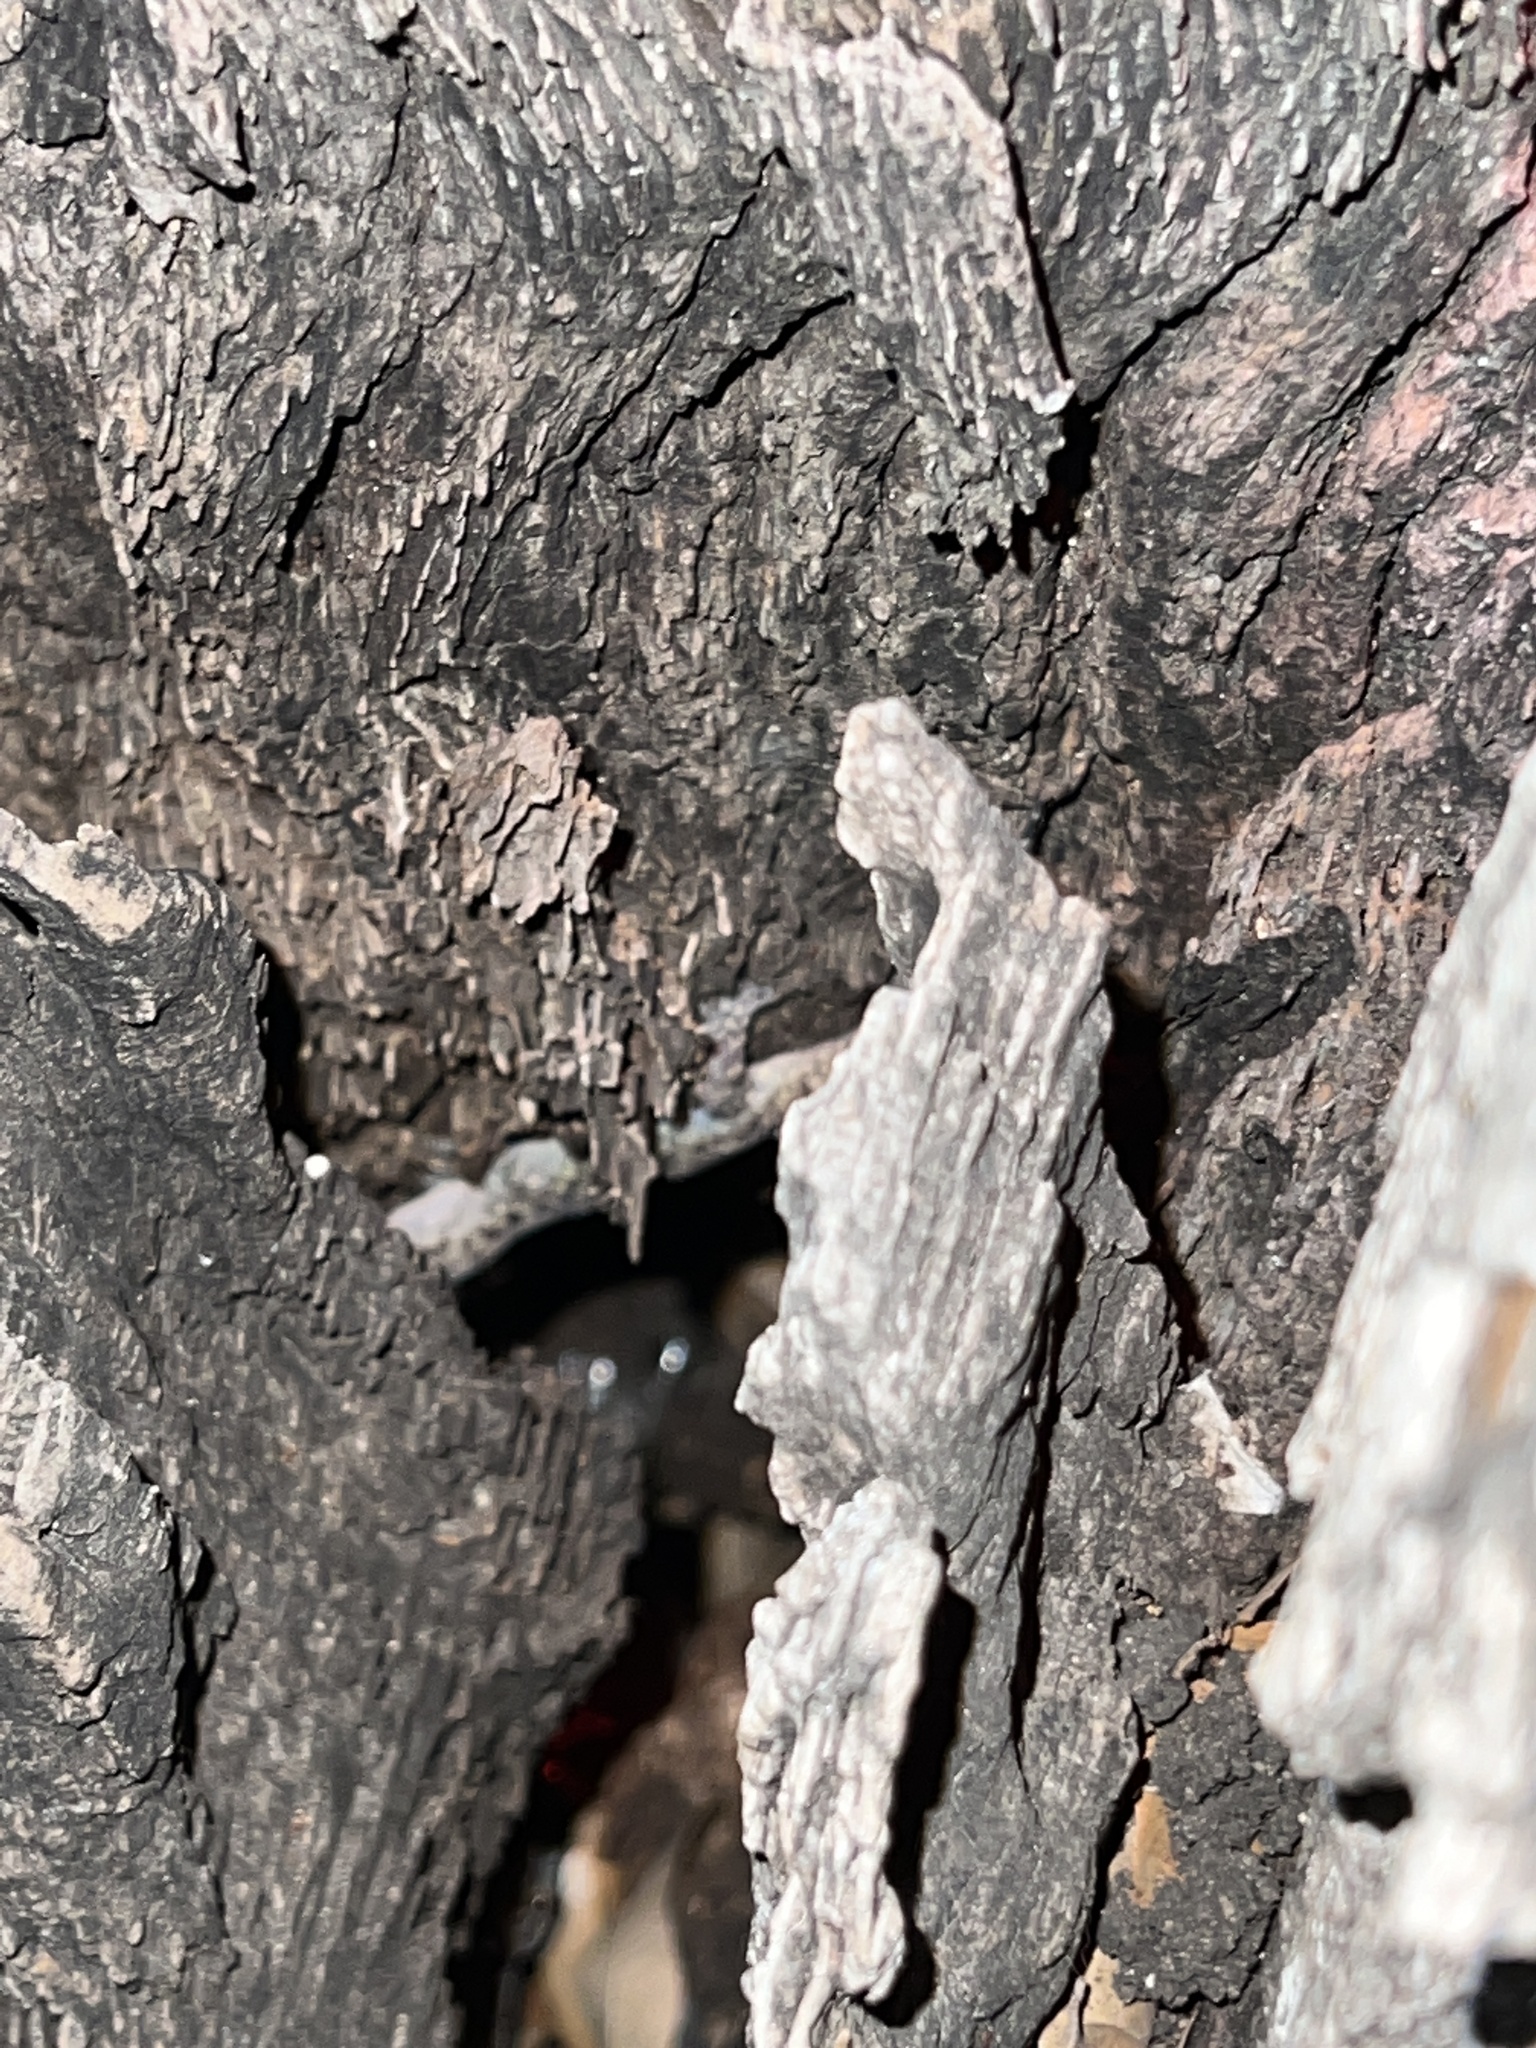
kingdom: Animalia
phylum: Chordata
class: Squamata
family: Gekkonidae
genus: Hemidactylus
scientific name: Hemidactylus turcicus
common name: Turkish gecko
